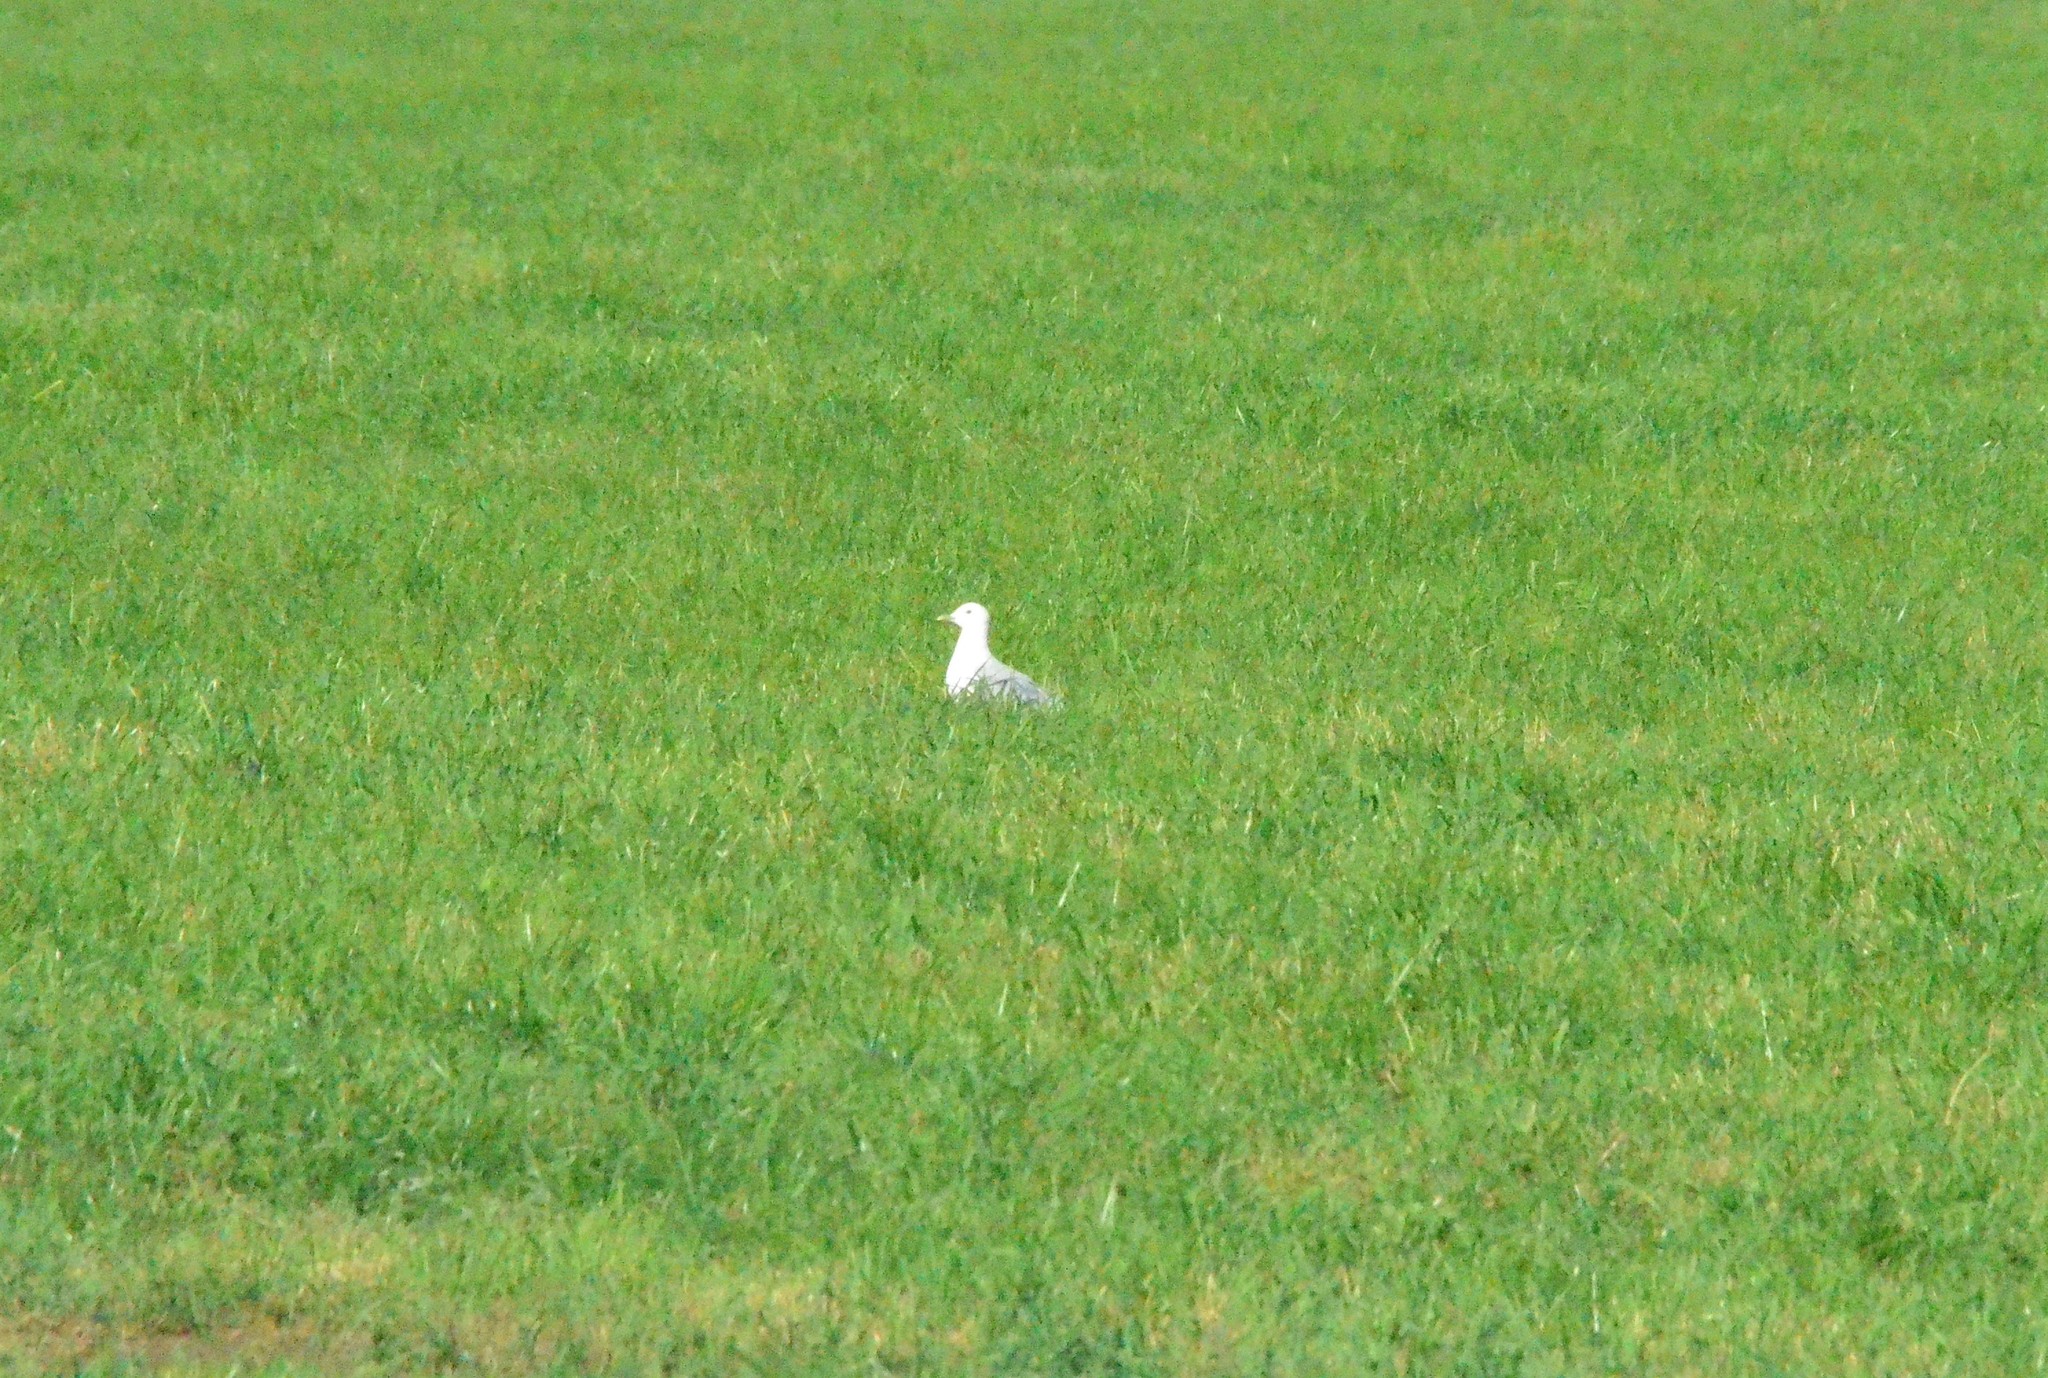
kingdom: Animalia
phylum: Chordata
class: Aves
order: Charadriiformes
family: Laridae
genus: Larus
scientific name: Larus canus
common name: Mew gull
